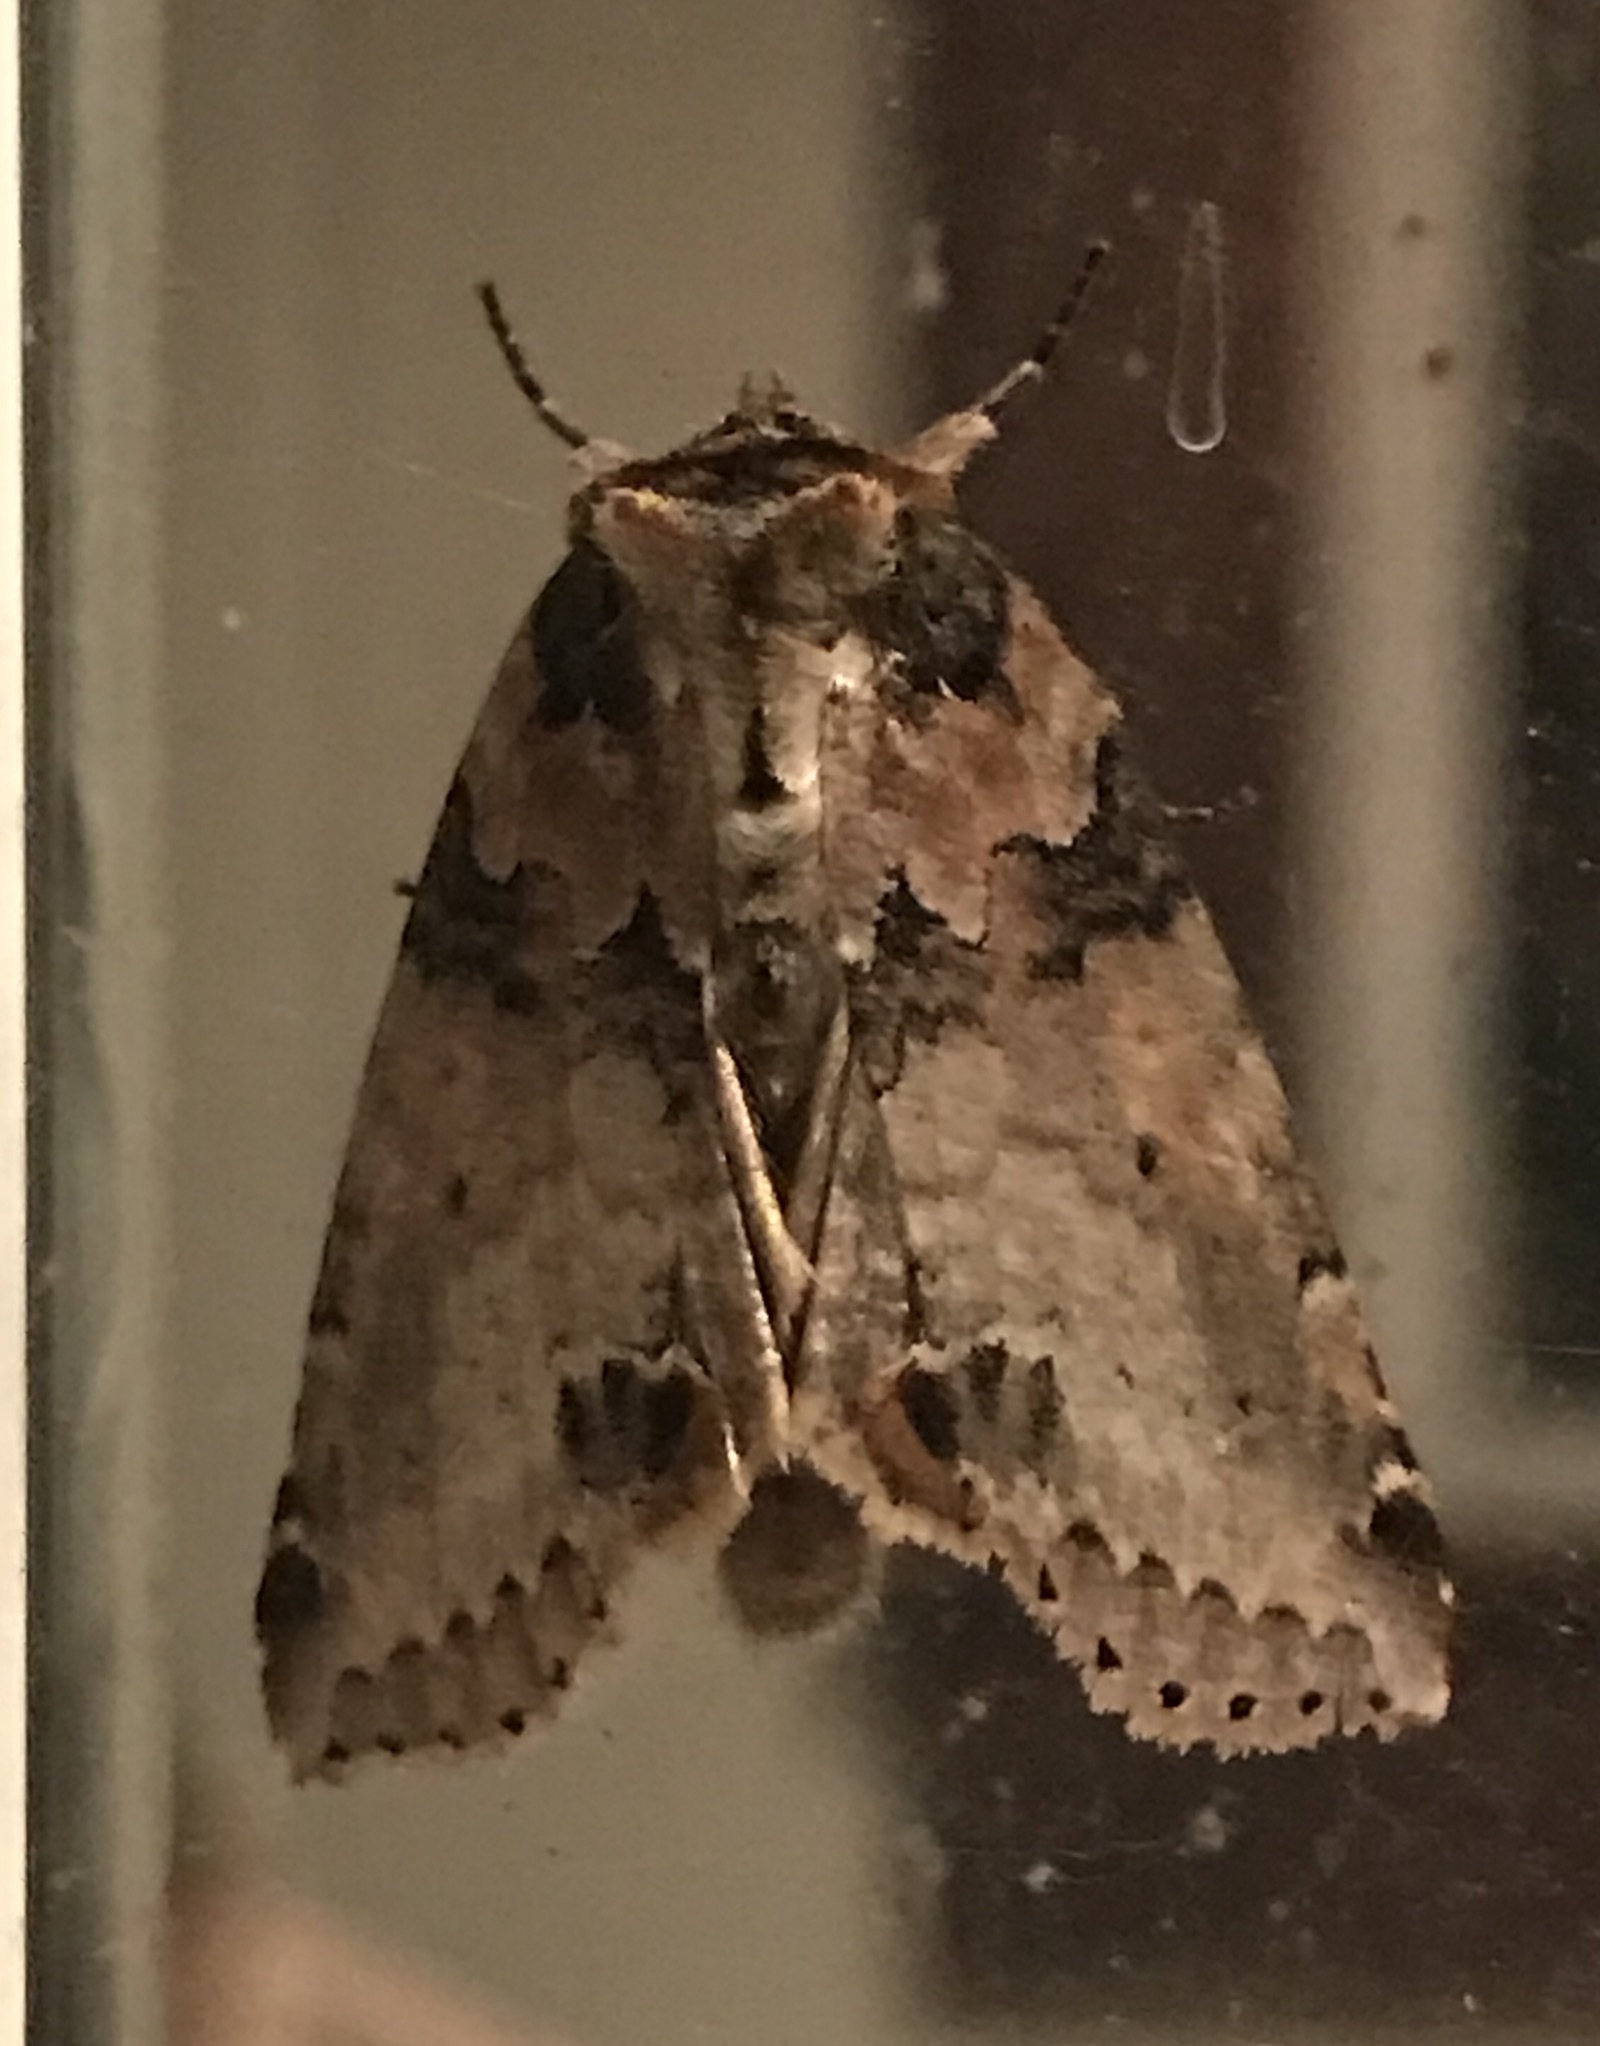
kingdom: Animalia
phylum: Arthropoda
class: Insecta
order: Lepidoptera
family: Drepanidae
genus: Pseudothyatira
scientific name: Pseudothyatira cymatophoroides
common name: Tufted thyatirid moth
